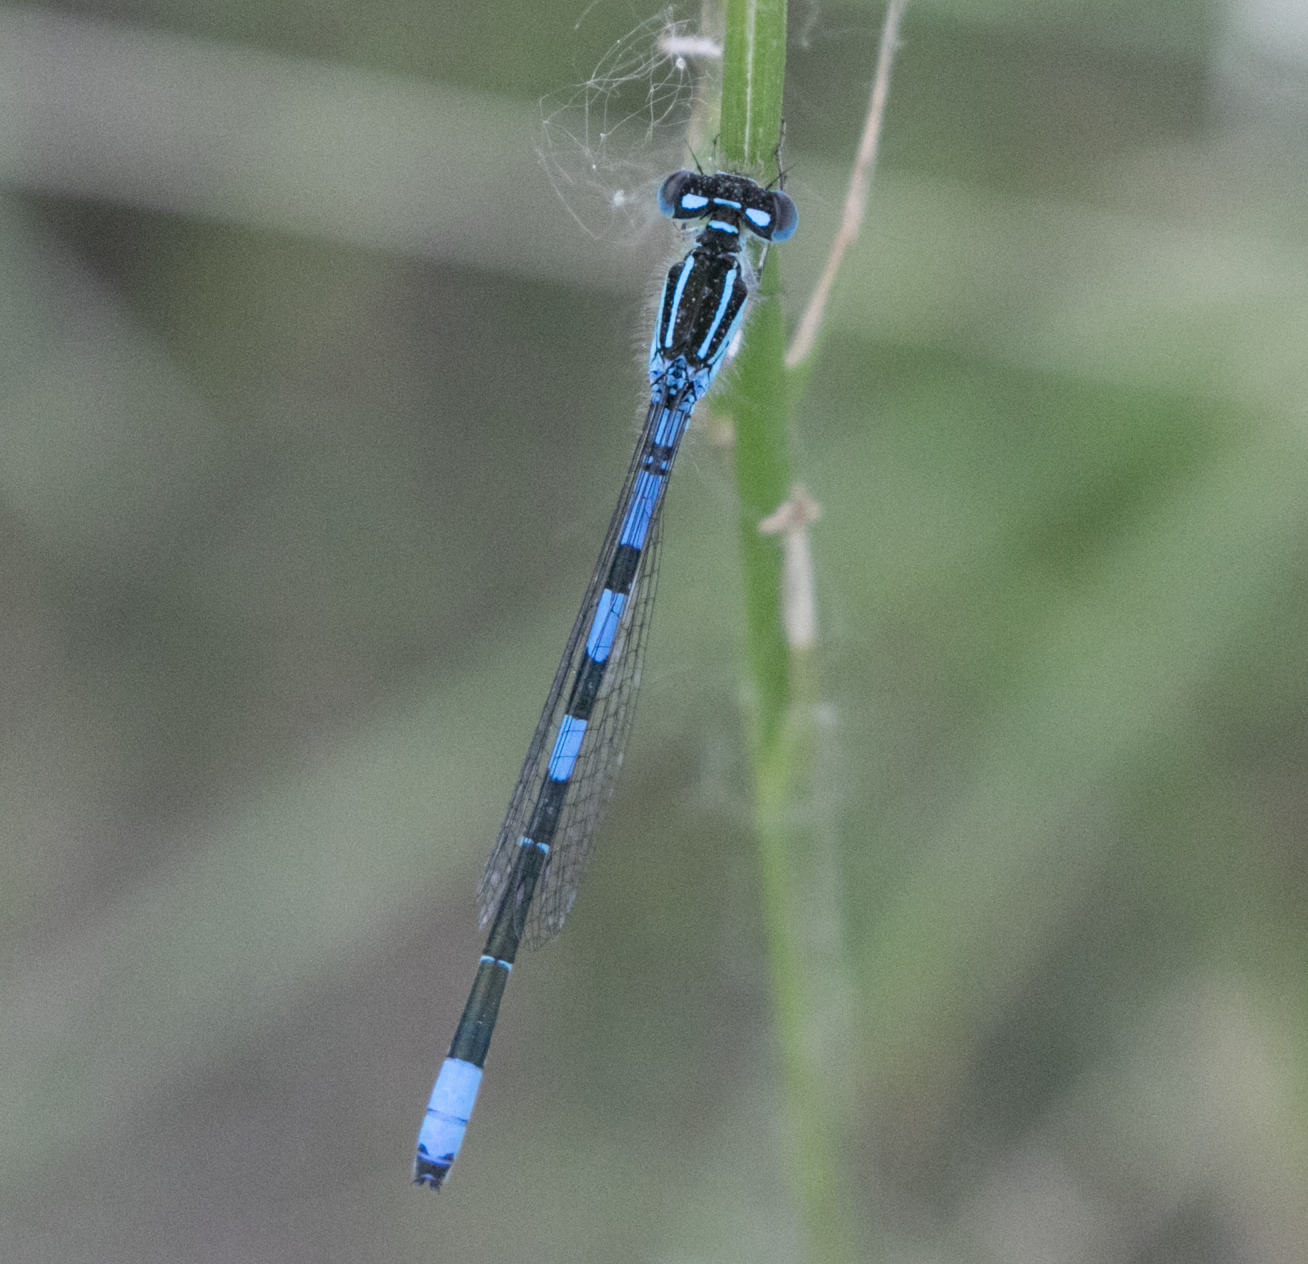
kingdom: Animalia
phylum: Arthropoda
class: Insecta
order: Odonata
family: Coenagrionidae
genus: Coenagrion
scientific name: Coenagrion scitulum
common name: Dainty bluet
